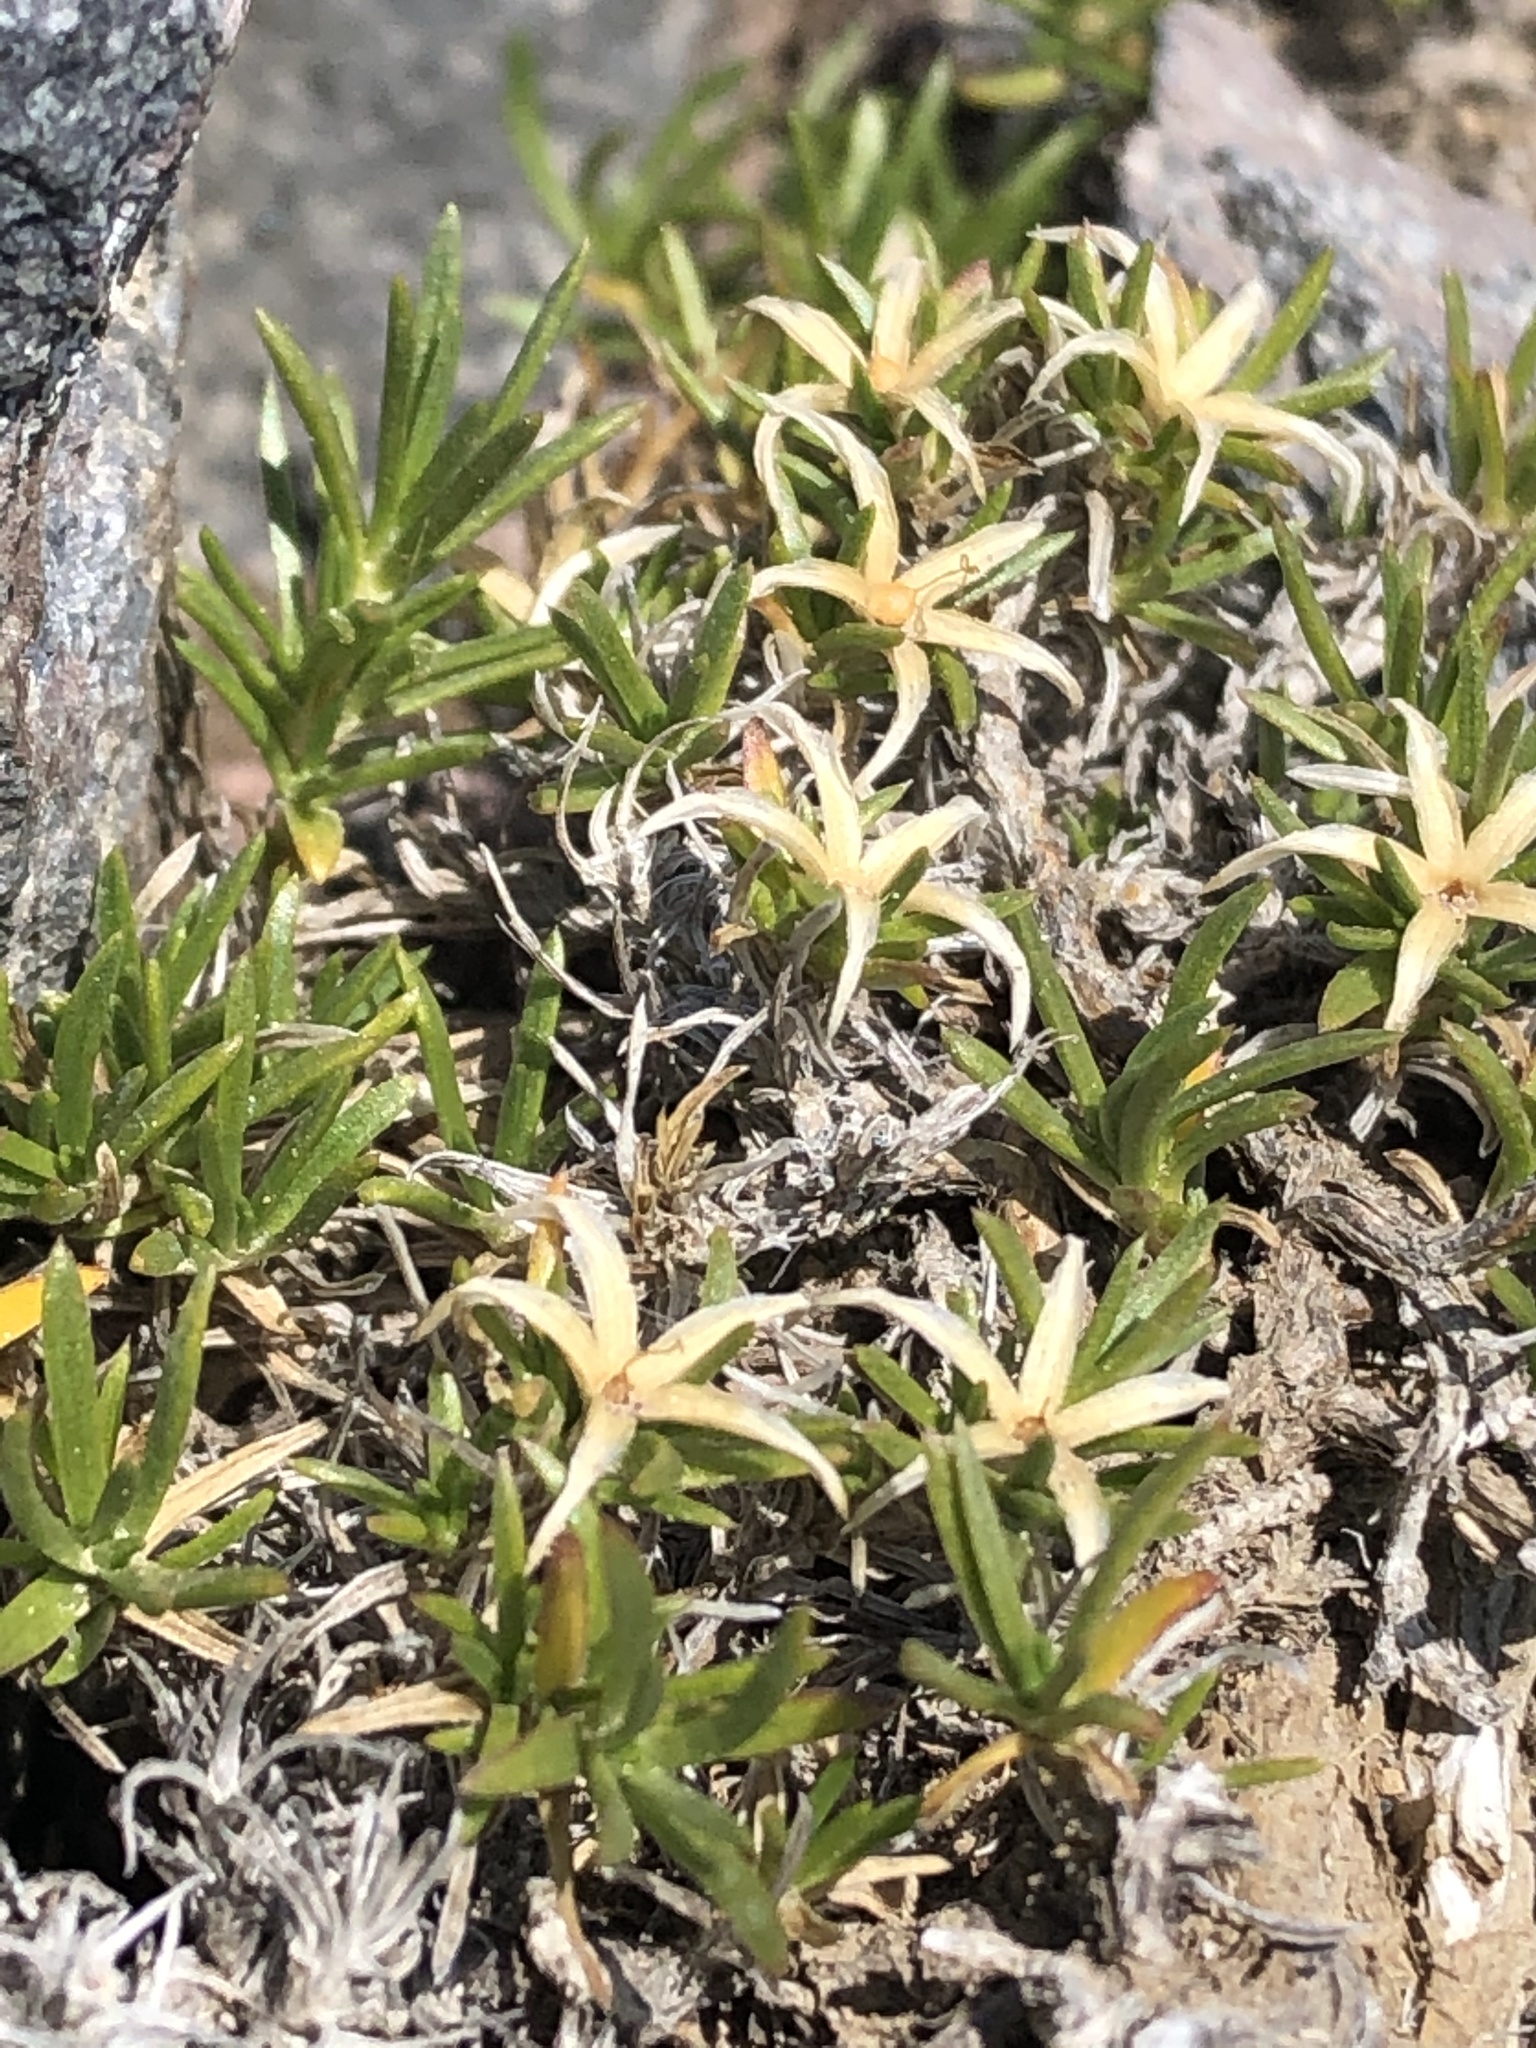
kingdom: Plantae
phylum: Tracheophyta
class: Magnoliopsida
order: Ericales
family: Polemoniaceae
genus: Phlox
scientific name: Phlox diffusa
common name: Mat phlox
